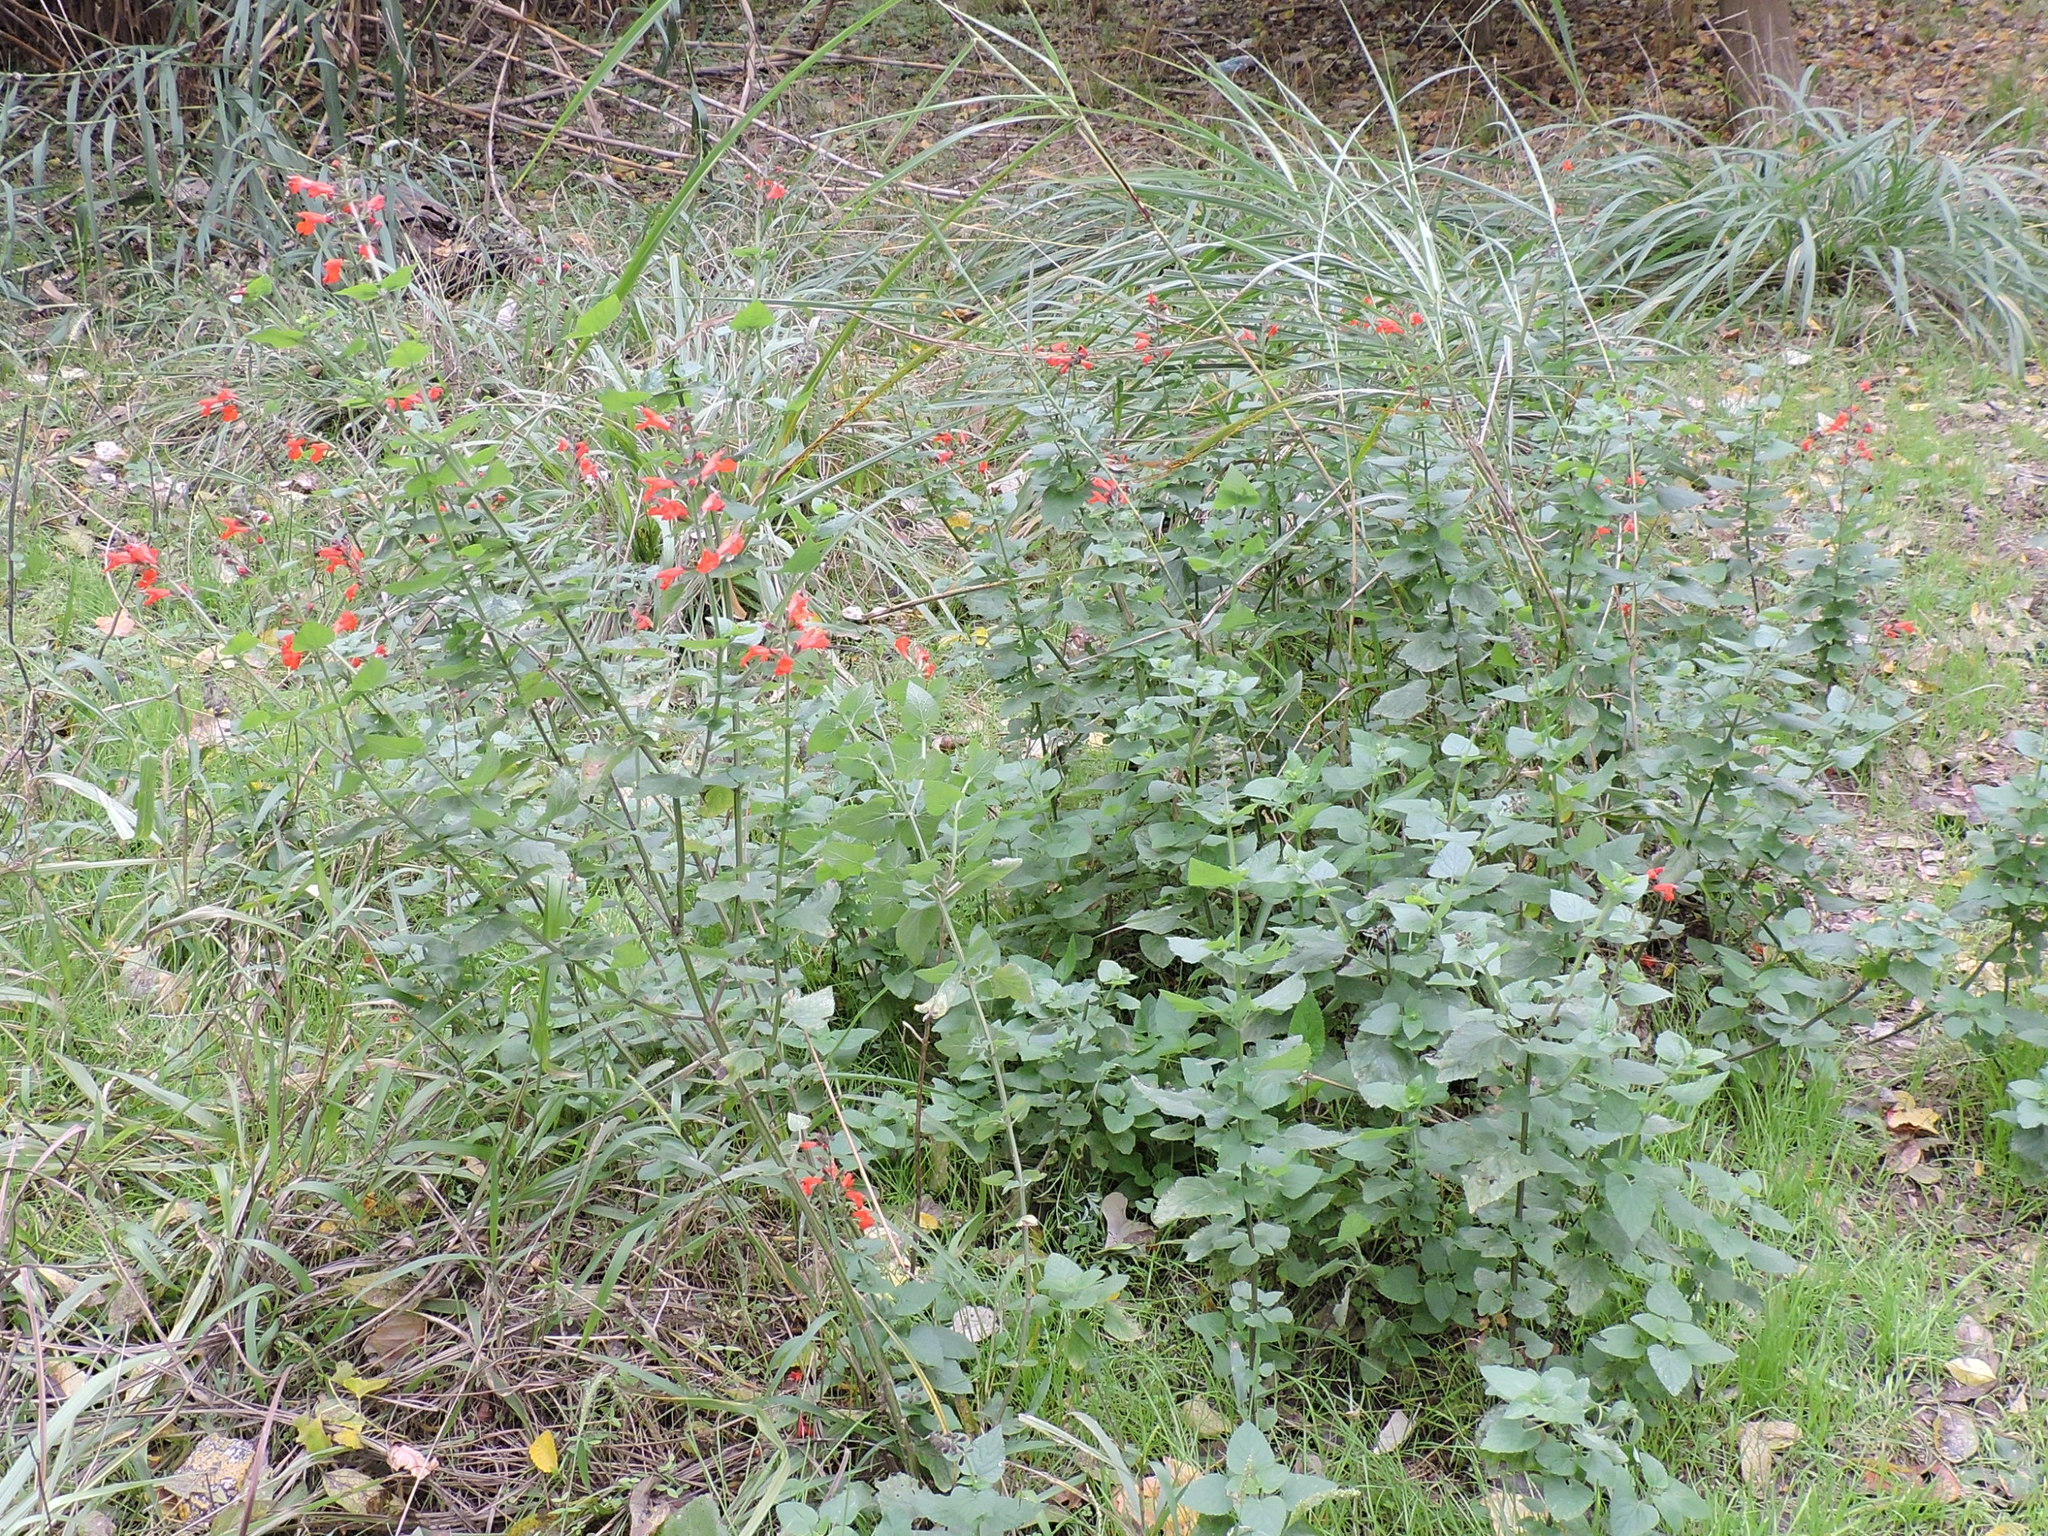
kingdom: Plantae
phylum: Tracheophyta
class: Magnoliopsida
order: Lamiales
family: Lamiaceae
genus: Salvia
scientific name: Salvia coccinea
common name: Blood sage
